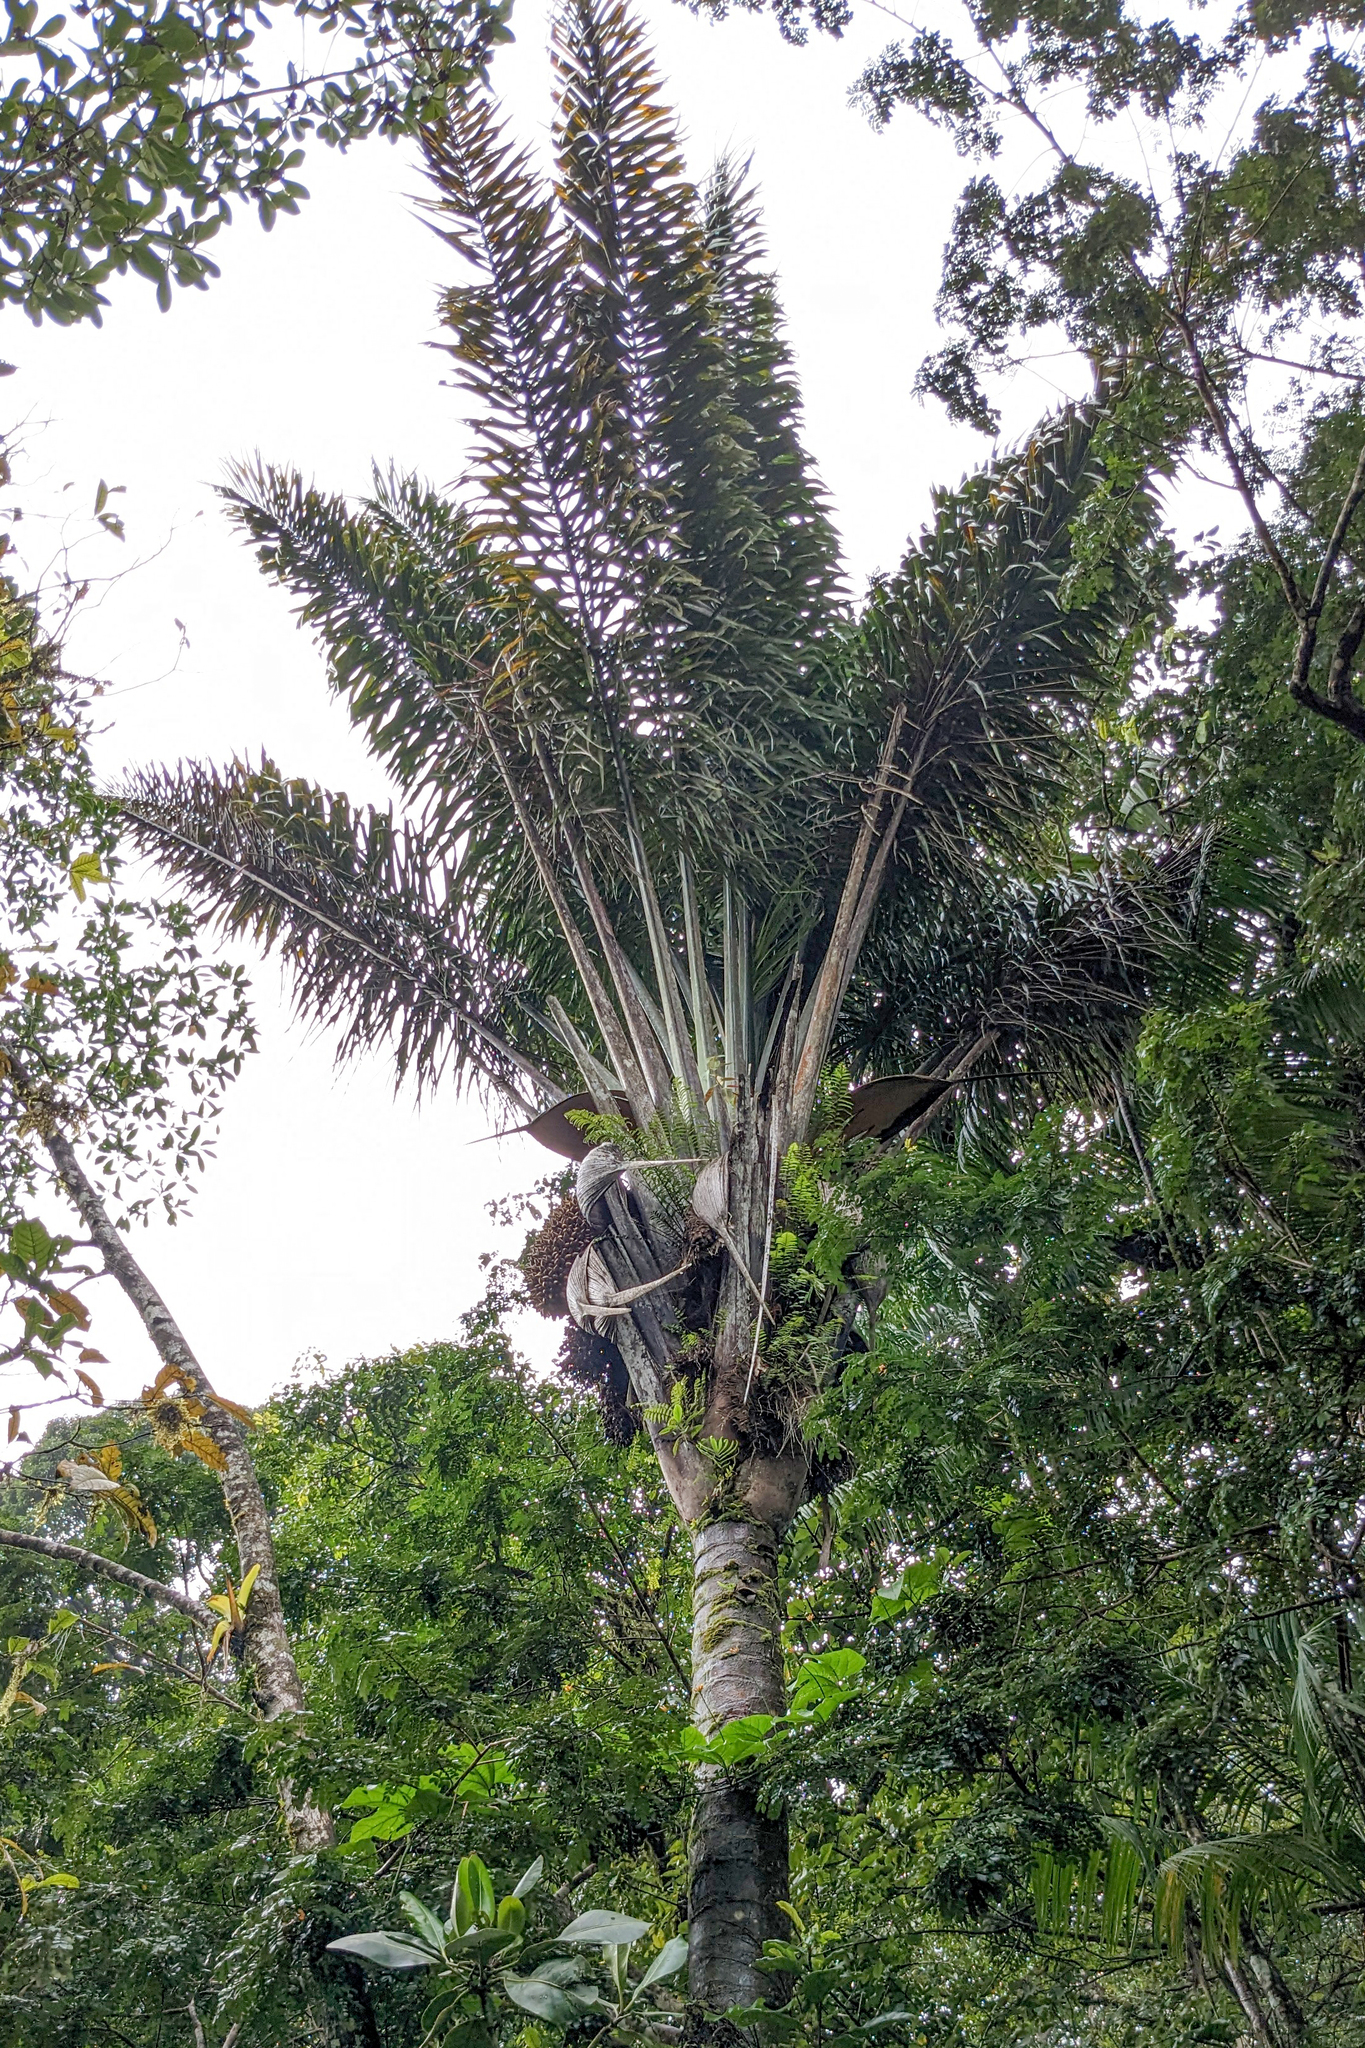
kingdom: Plantae
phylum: Tracheophyta
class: Liliopsida
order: Arecales
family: Arecaceae
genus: Attalea
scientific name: Attalea maripa
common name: Maripa palm
